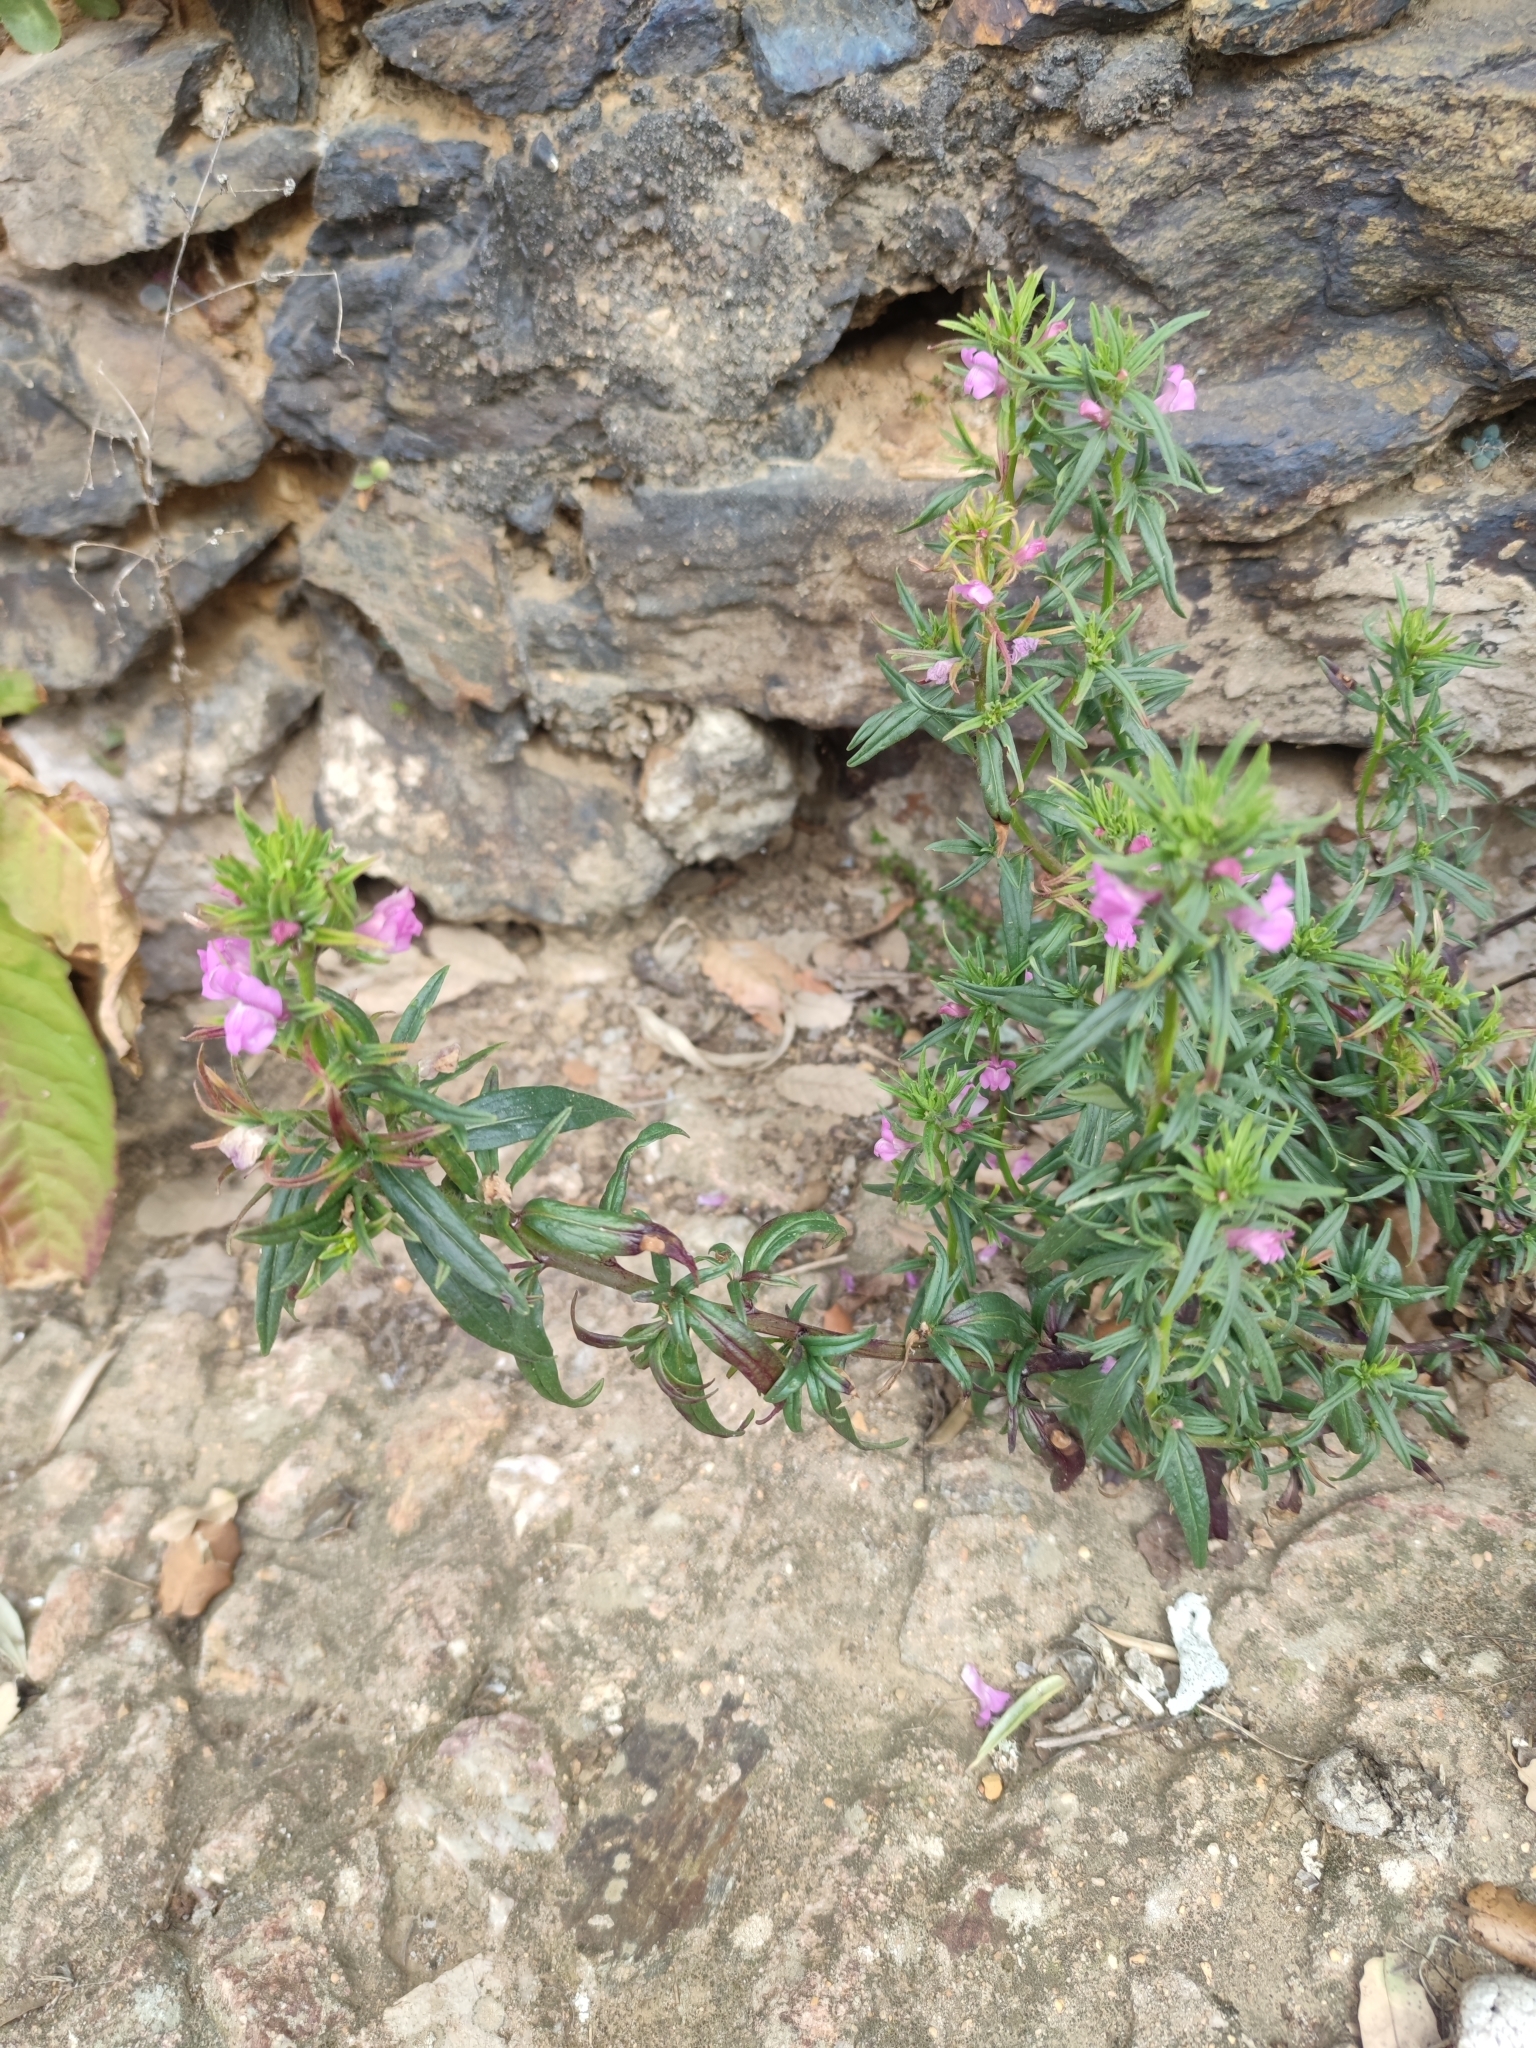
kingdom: Plantae
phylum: Tracheophyta
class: Magnoliopsida
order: Lamiales
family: Plantaginaceae
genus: Misopates
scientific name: Misopates orontium
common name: Weasel's-snout
